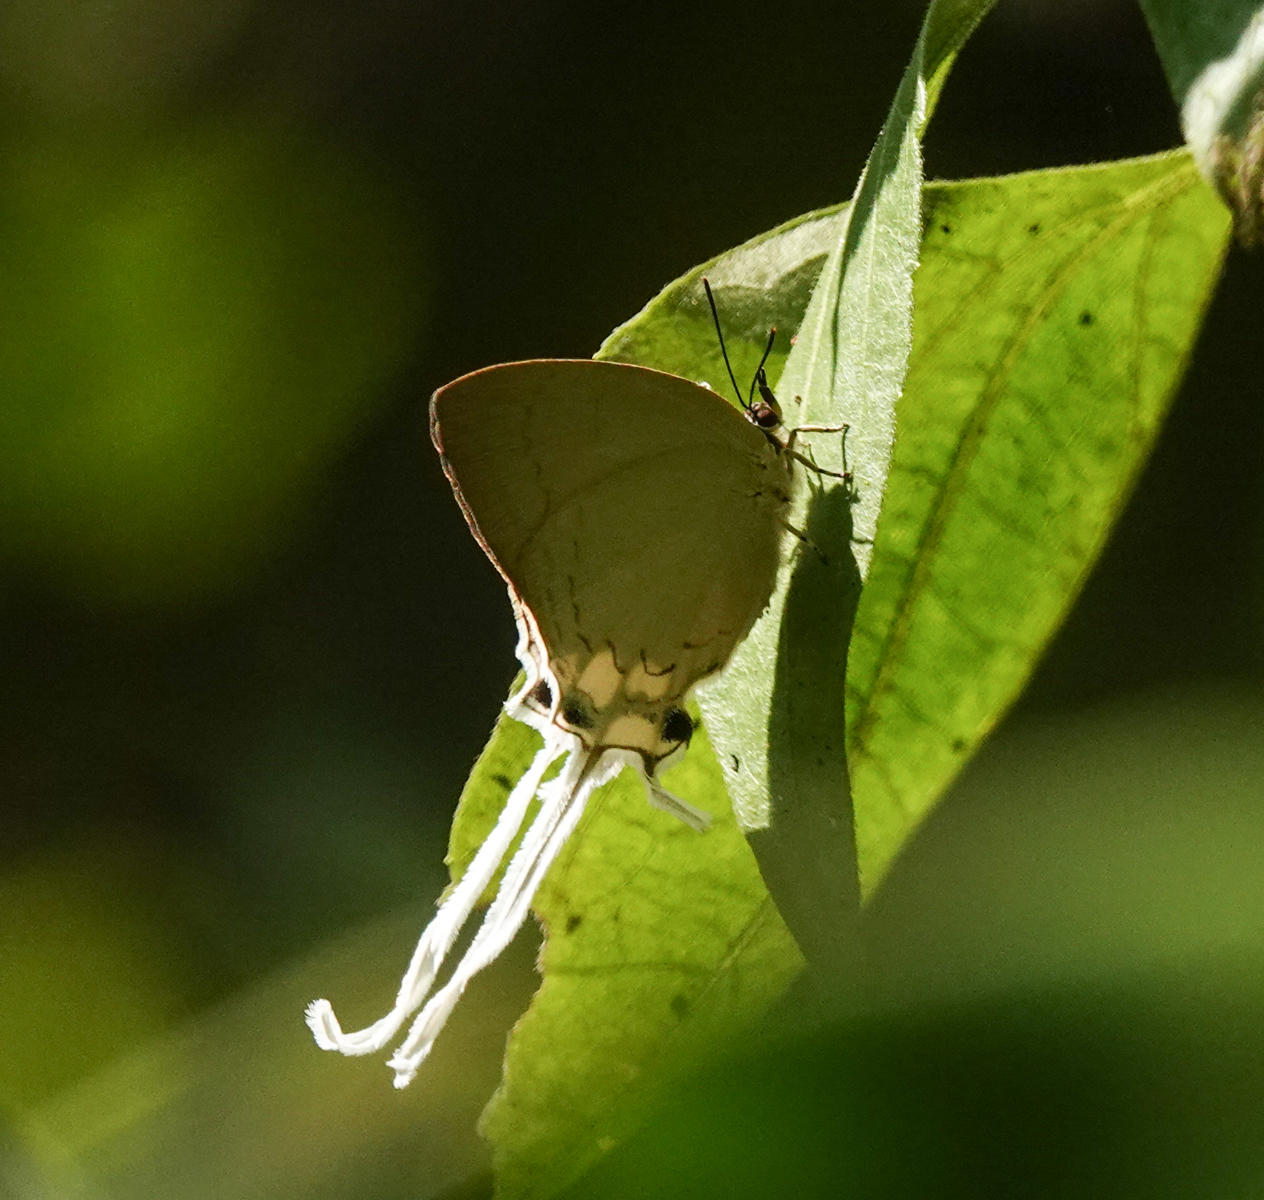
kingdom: Animalia
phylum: Arthropoda
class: Insecta
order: Lepidoptera
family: Lycaenidae
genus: Cheritra
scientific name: Cheritra freja
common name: Common imperial
